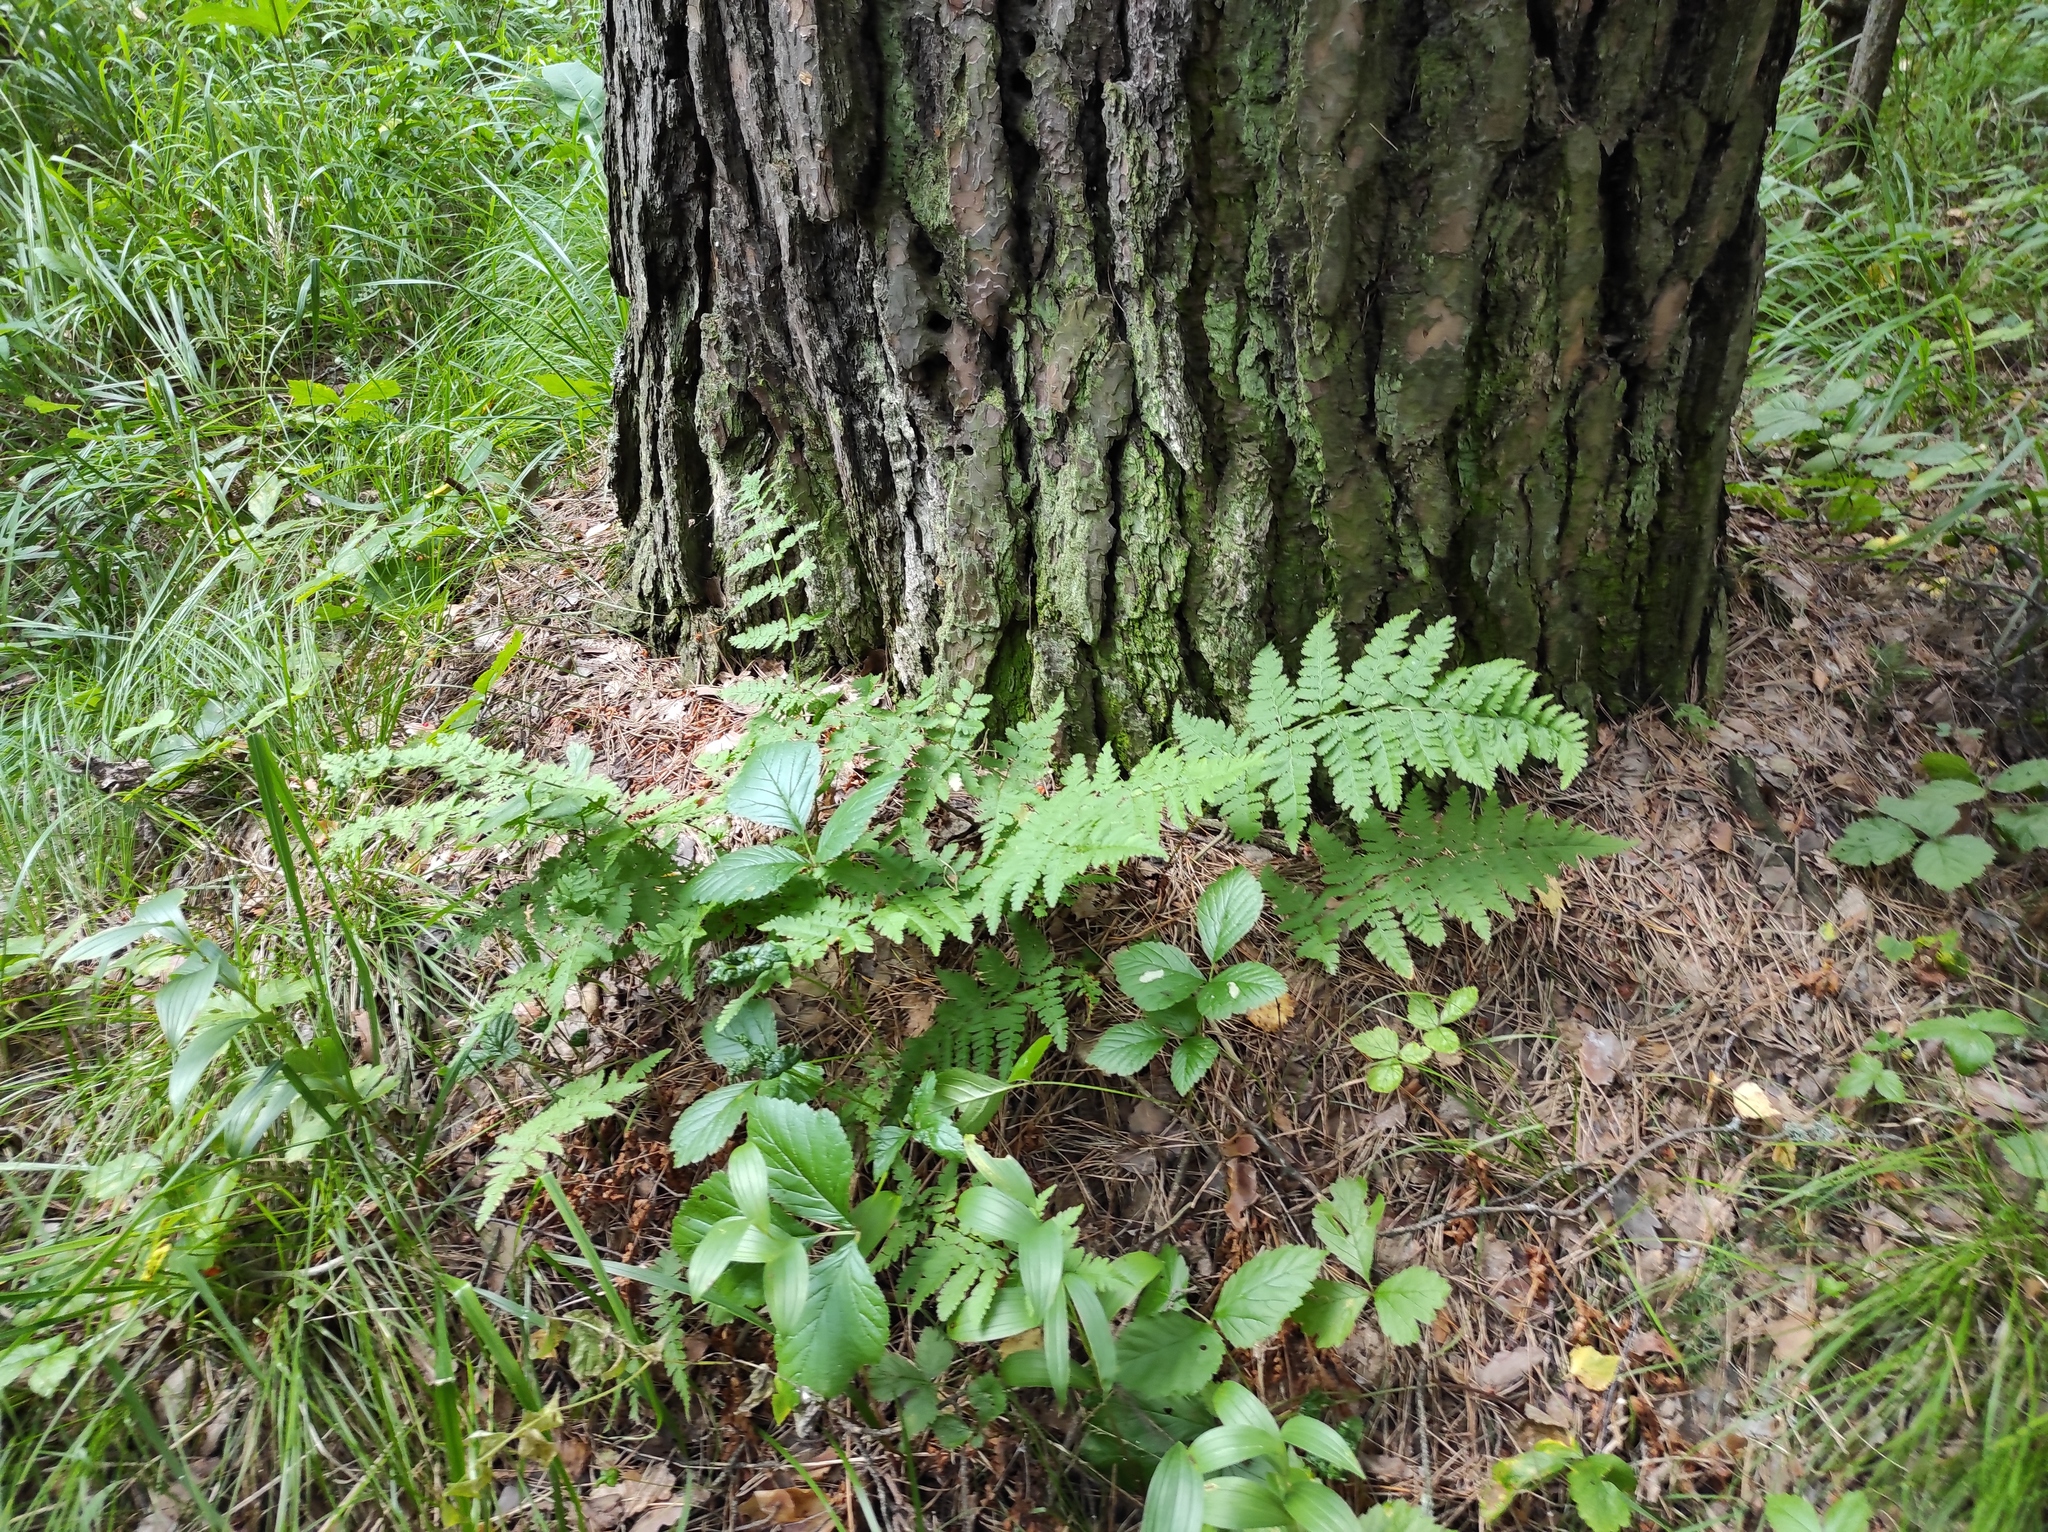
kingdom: Plantae
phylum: Tracheophyta
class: Pinopsida
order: Pinales
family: Pinaceae
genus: Pinus
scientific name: Pinus sylvestris
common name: Scots pine
